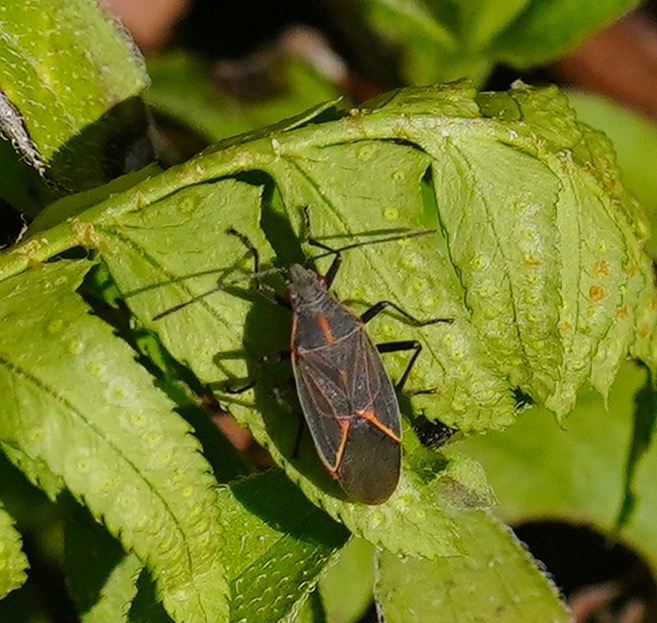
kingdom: Animalia
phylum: Arthropoda
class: Insecta
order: Hemiptera
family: Rhopalidae
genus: Boisea
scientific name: Boisea rubrolineata
